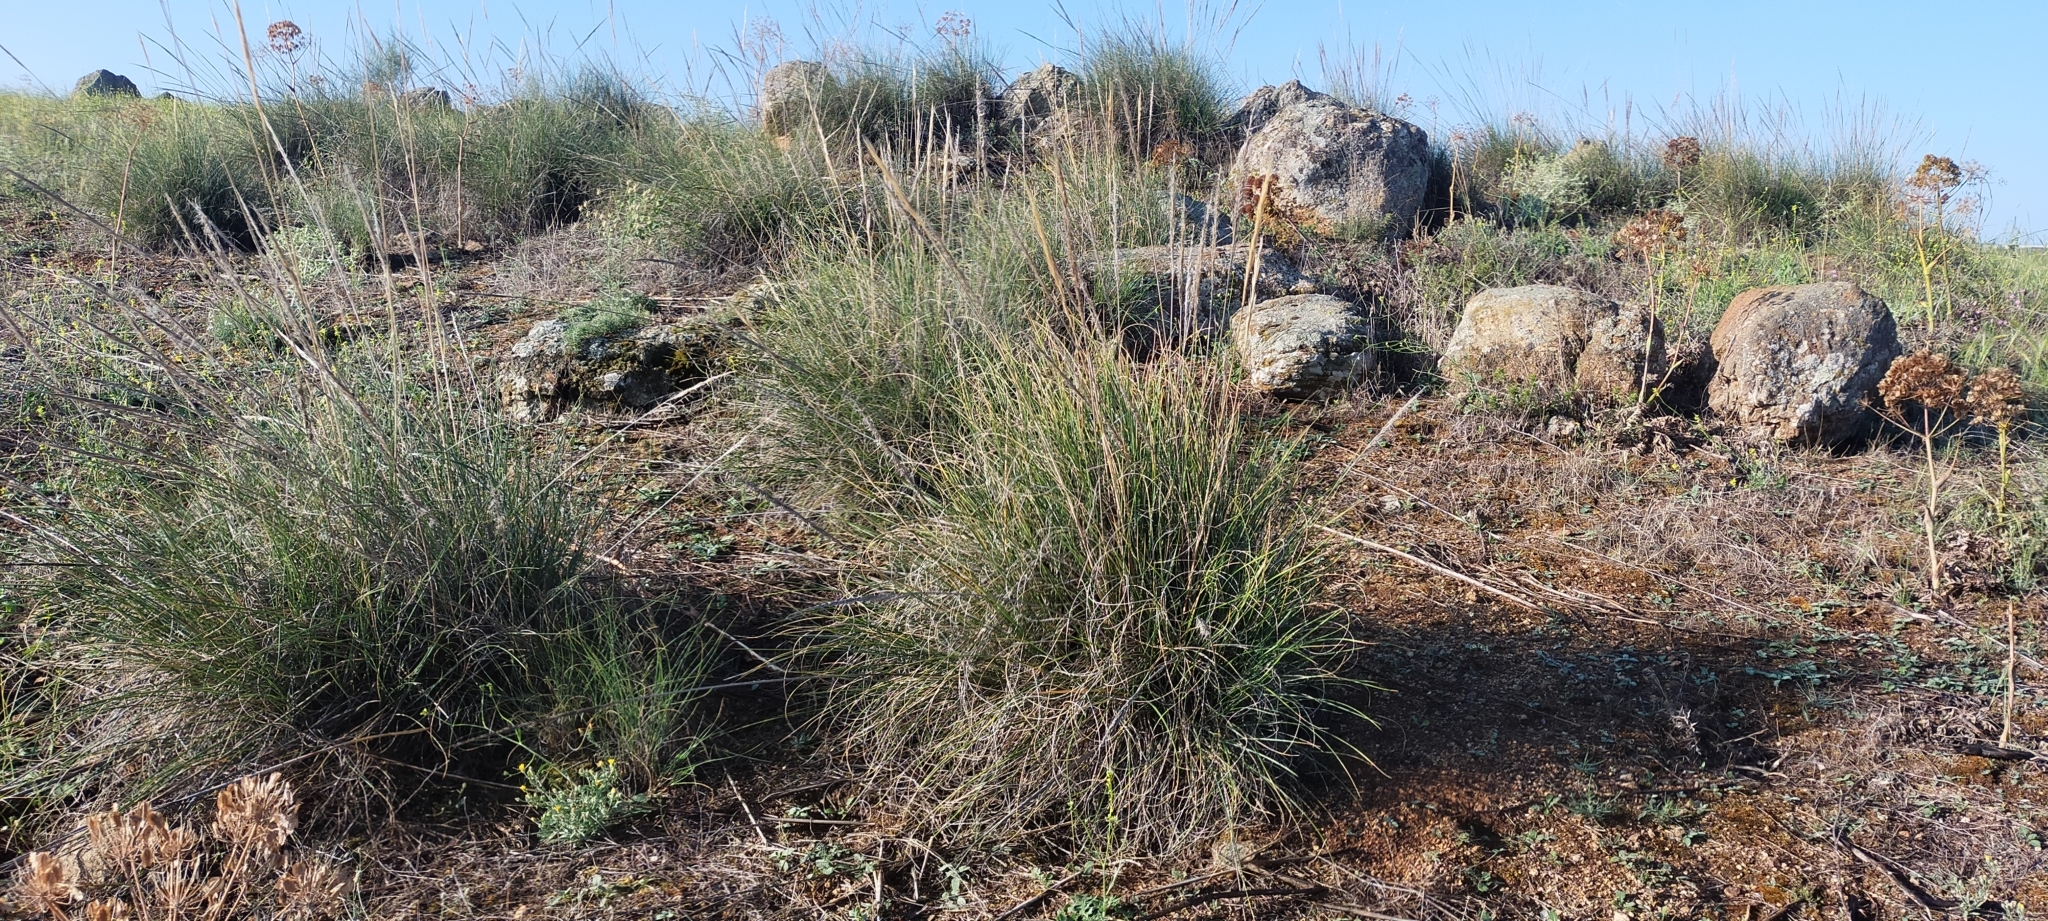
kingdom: Plantae
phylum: Tracheophyta
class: Liliopsida
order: Poales
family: Poaceae
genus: Macrochloa
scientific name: Macrochloa tenacissima
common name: Alfa grass
